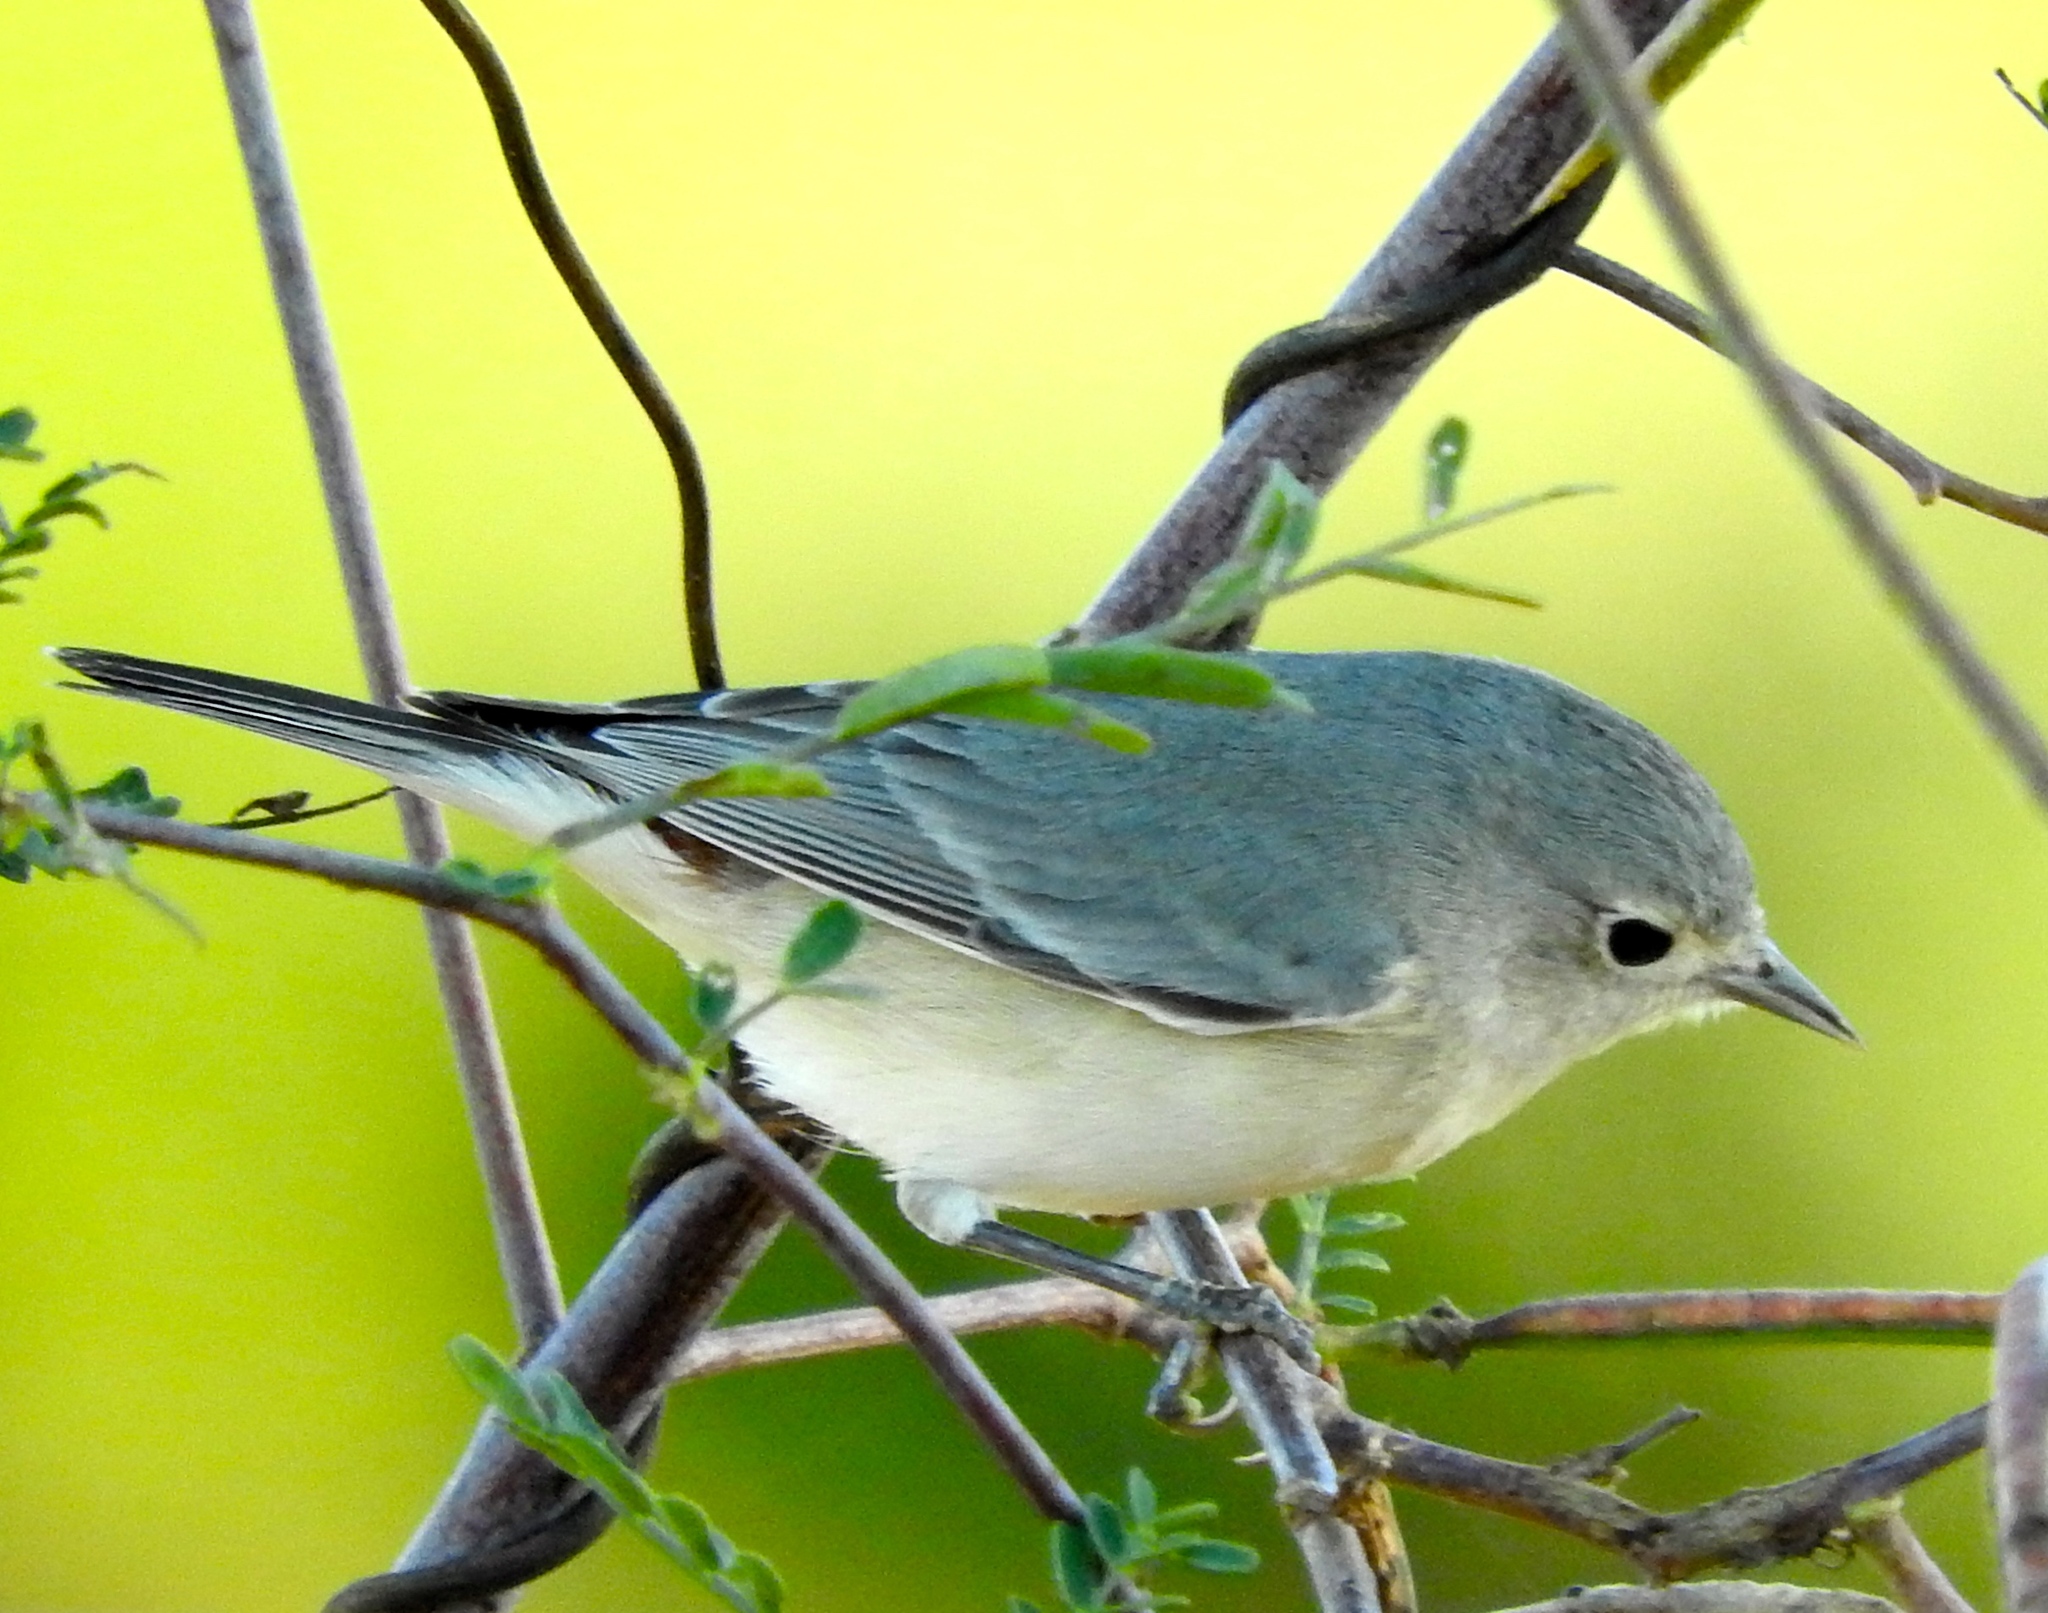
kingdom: Animalia
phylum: Chordata
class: Aves
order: Passeriformes
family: Polioptilidae
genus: Polioptila
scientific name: Polioptila caerulea
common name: Blue-gray gnatcatcher
